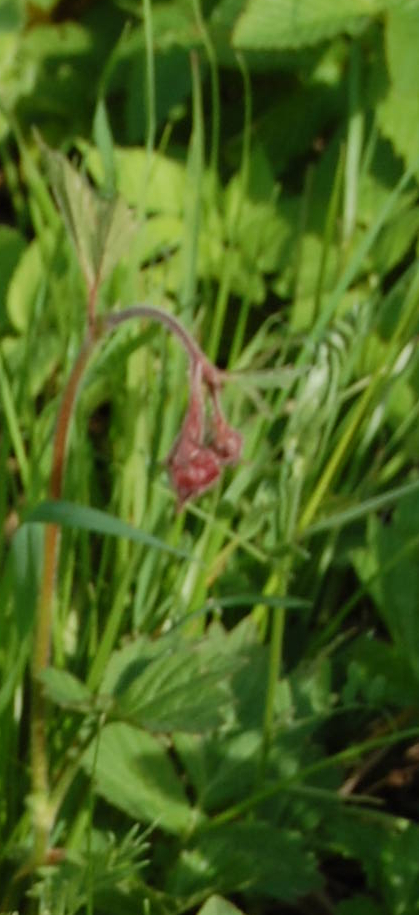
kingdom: Plantae
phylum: Tracheophyta
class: Magnoliopsida
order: Rosales
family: Rosaceae
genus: Geum
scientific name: Geum rivale
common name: Water avens
